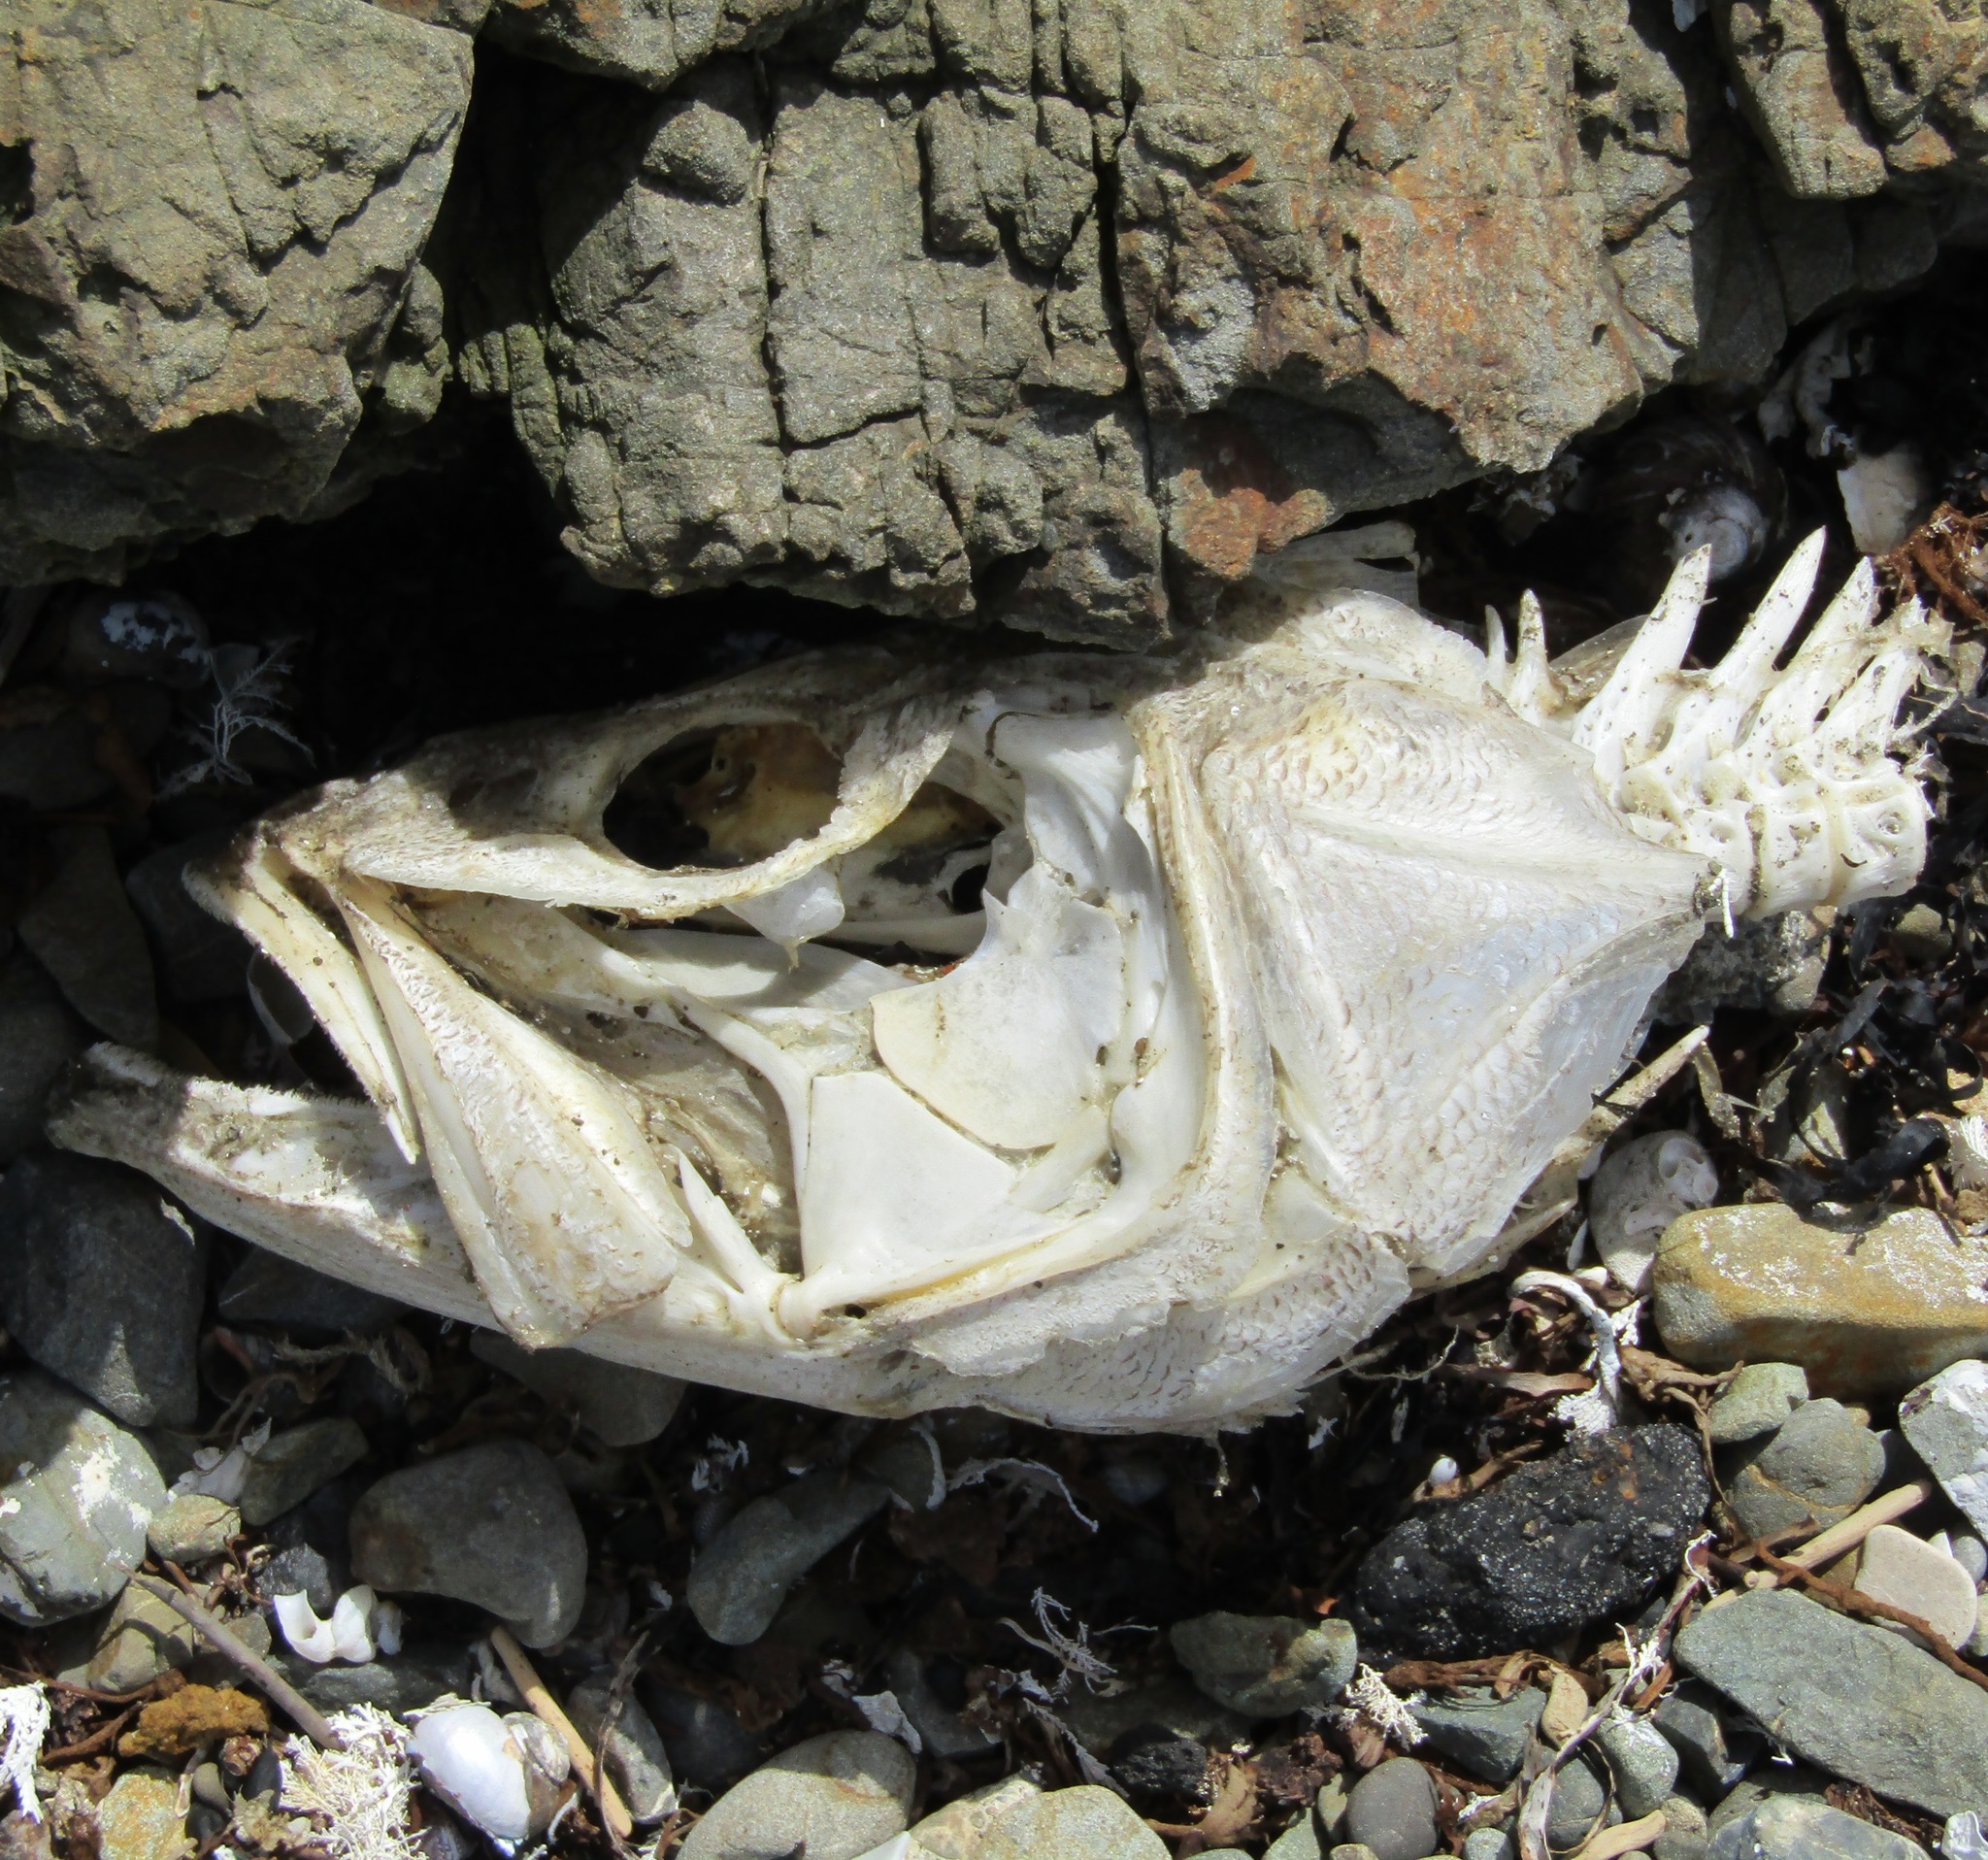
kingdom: Animalia
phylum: Chordata
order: Perciformes
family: Polyprionidae
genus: Polyprion
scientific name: Polyprion oxygeneios
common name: Hapuka
